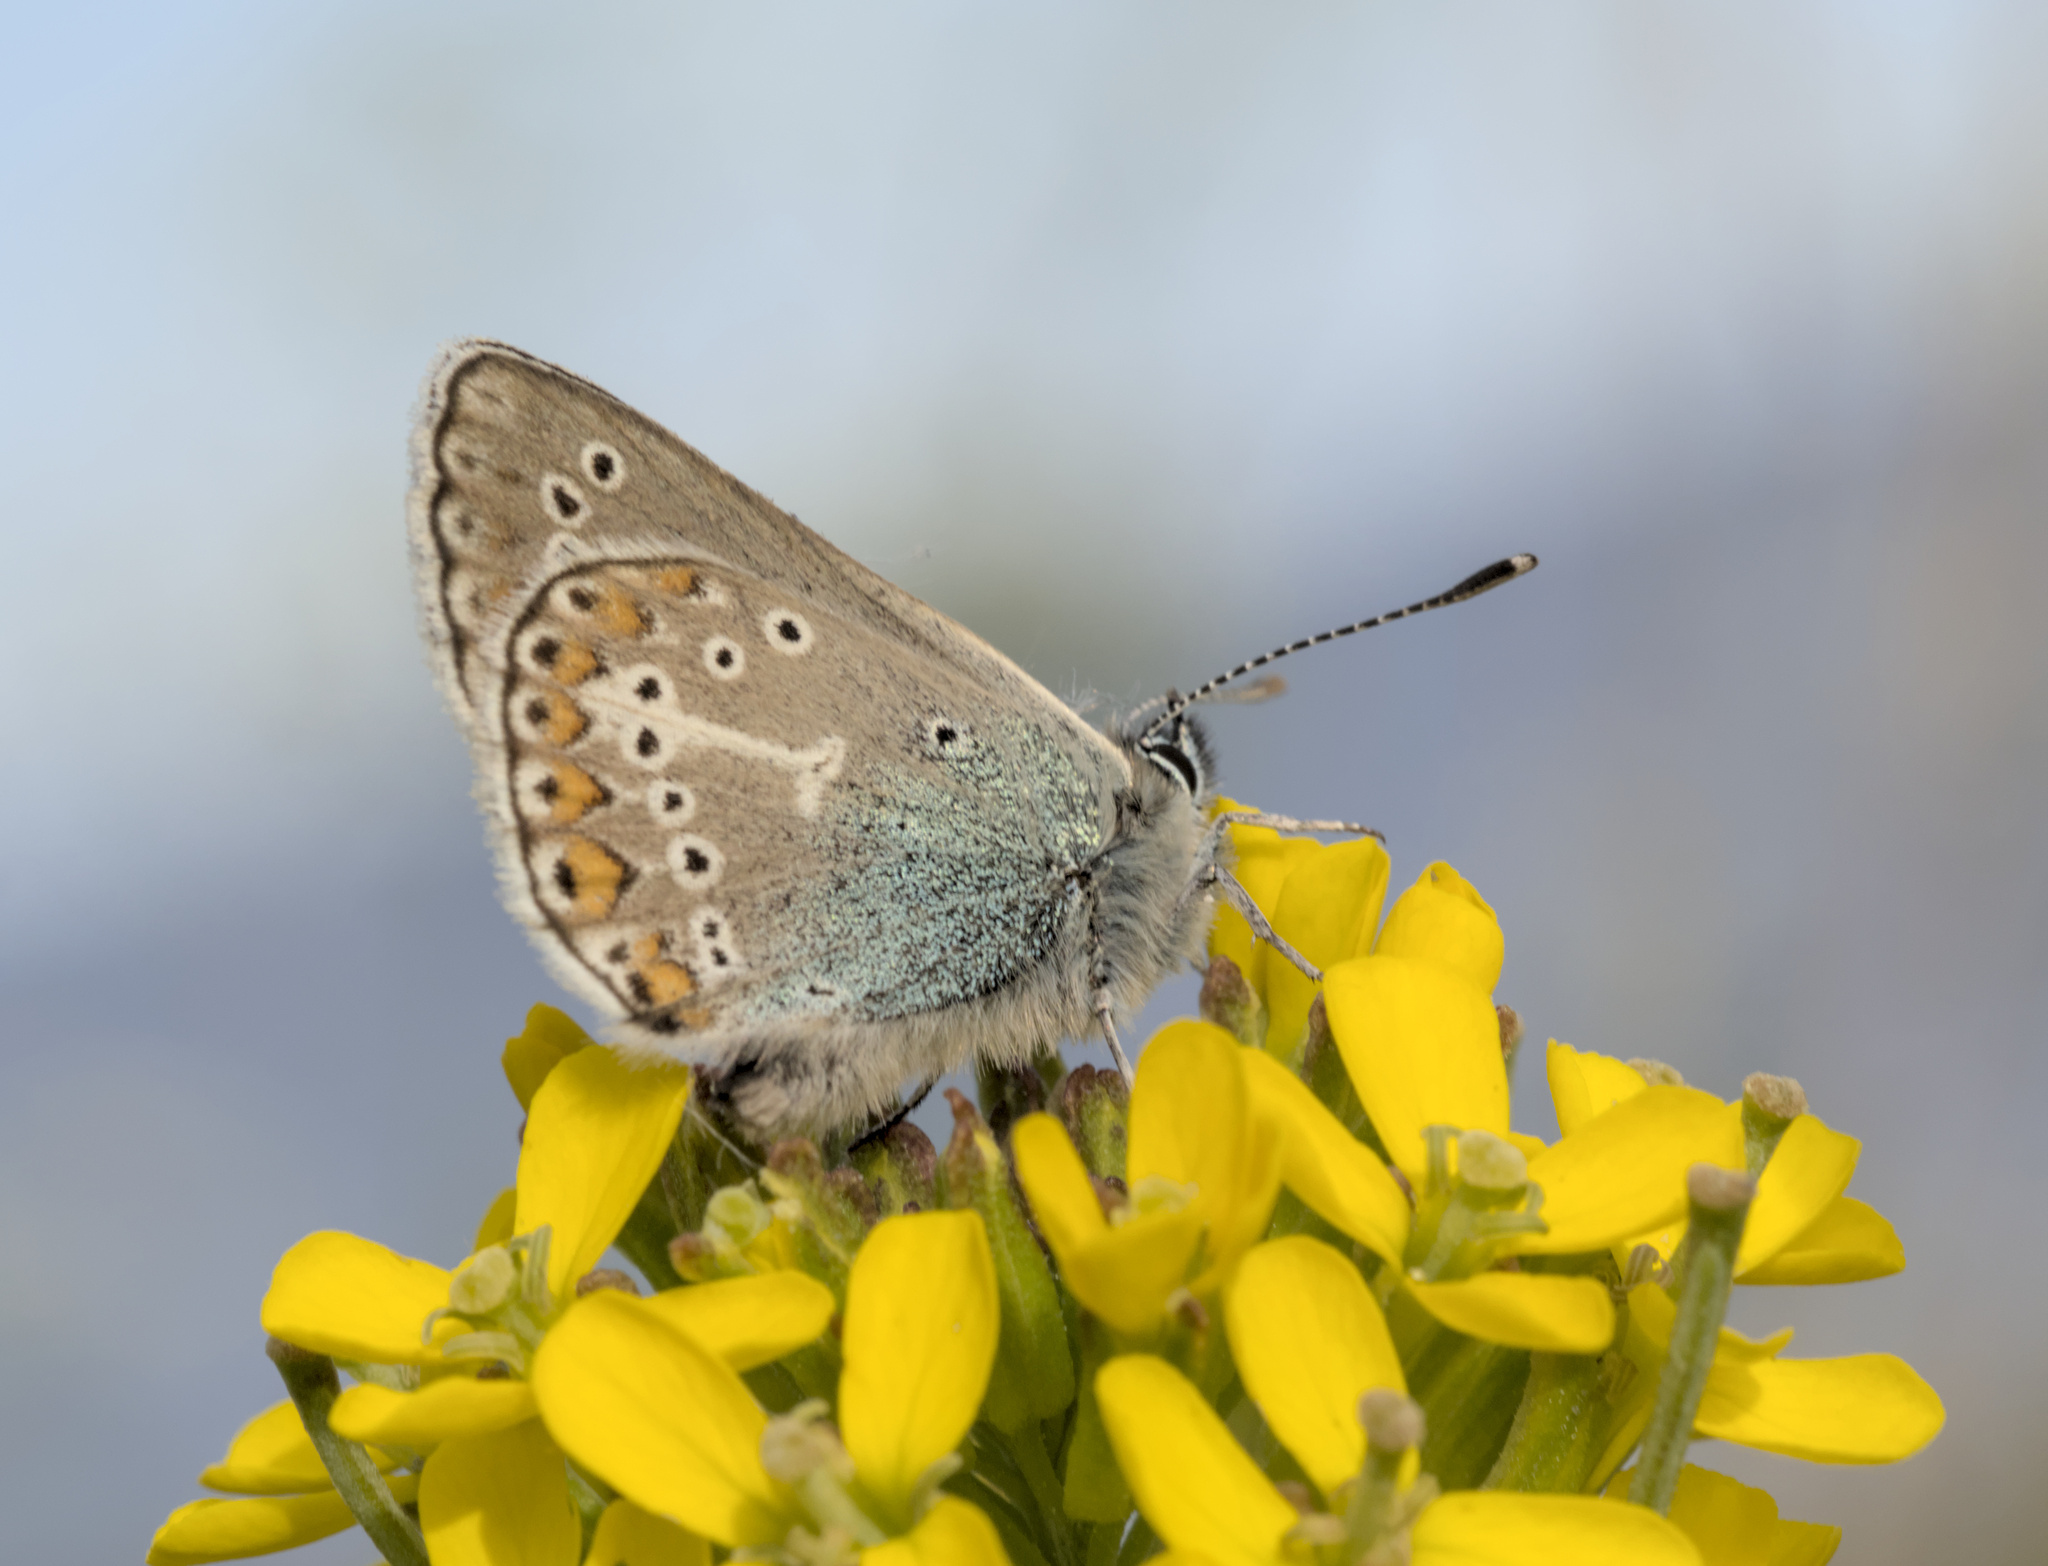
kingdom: Animalia
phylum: Arthropoda
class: Insecta
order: Lepidoptera
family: Lycaenidae
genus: Eumedonia
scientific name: Eumedonia eumedon
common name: Geranium argus
